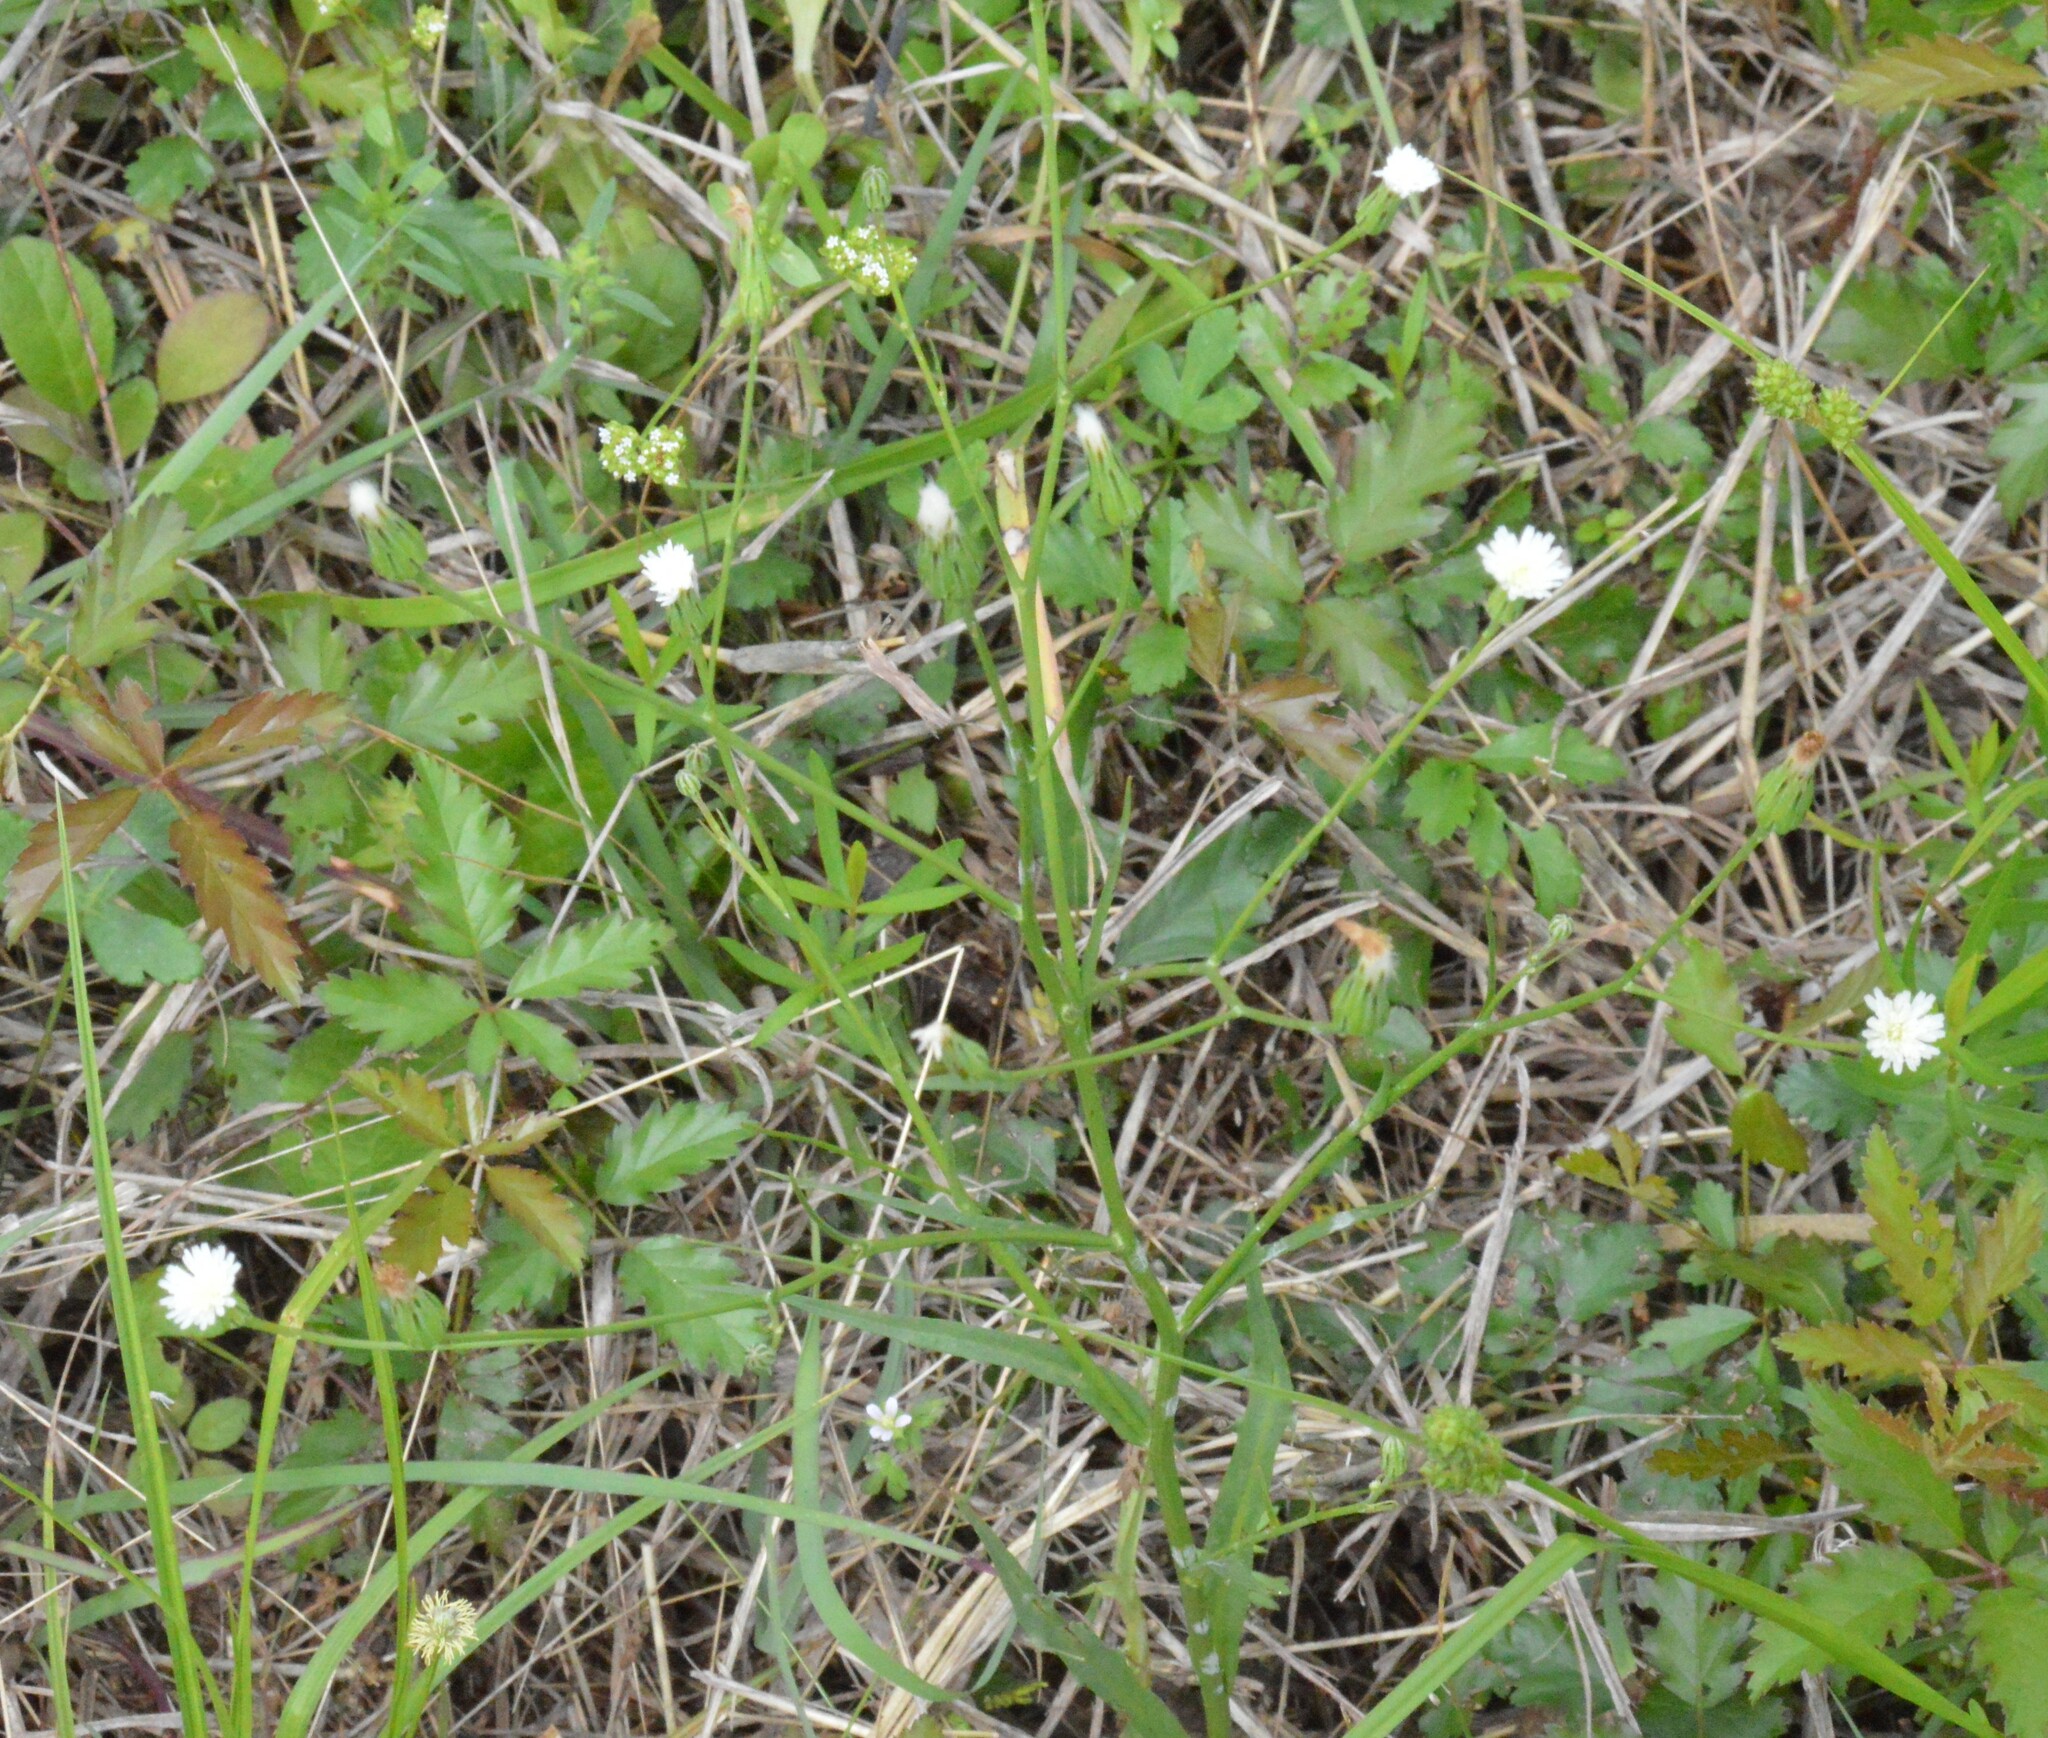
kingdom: Plantae
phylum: Tracheophyta
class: Magnoliopsida
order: Asterales
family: Asteraceae
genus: Hypochaeris
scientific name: Hypochaeris albiflora
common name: White flatweed
